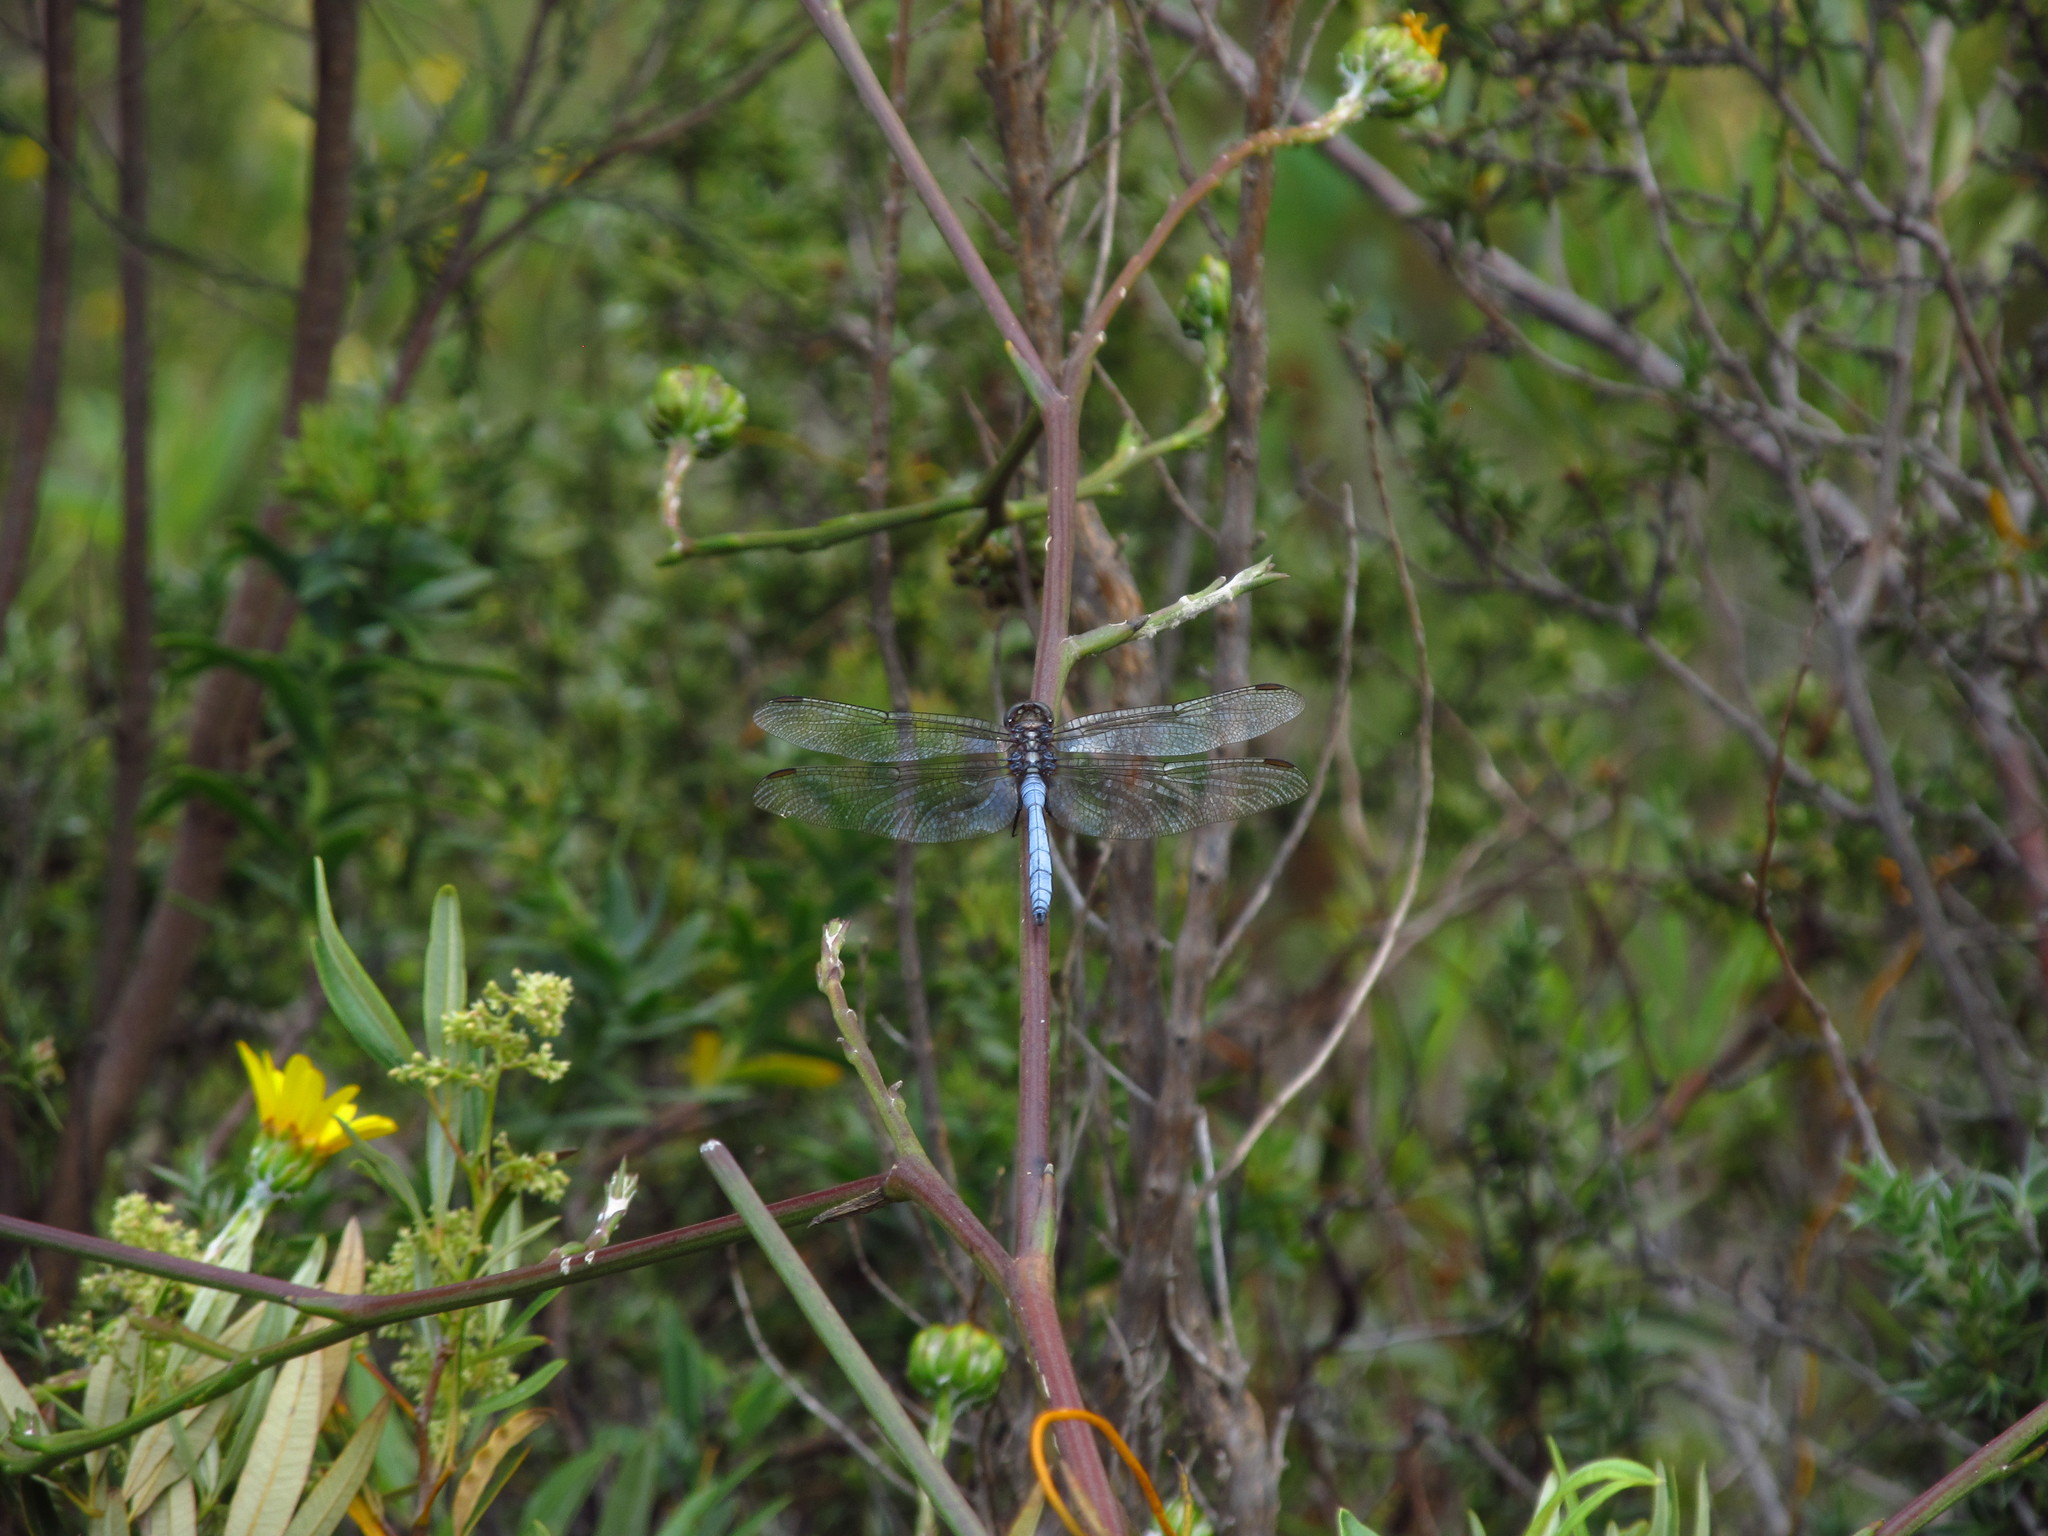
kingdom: Animalia
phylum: Arthropoda
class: Insecta
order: Odonata
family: Libellulidae
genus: Orthetrum
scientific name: Orthetrum julia
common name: Julia skimmer
